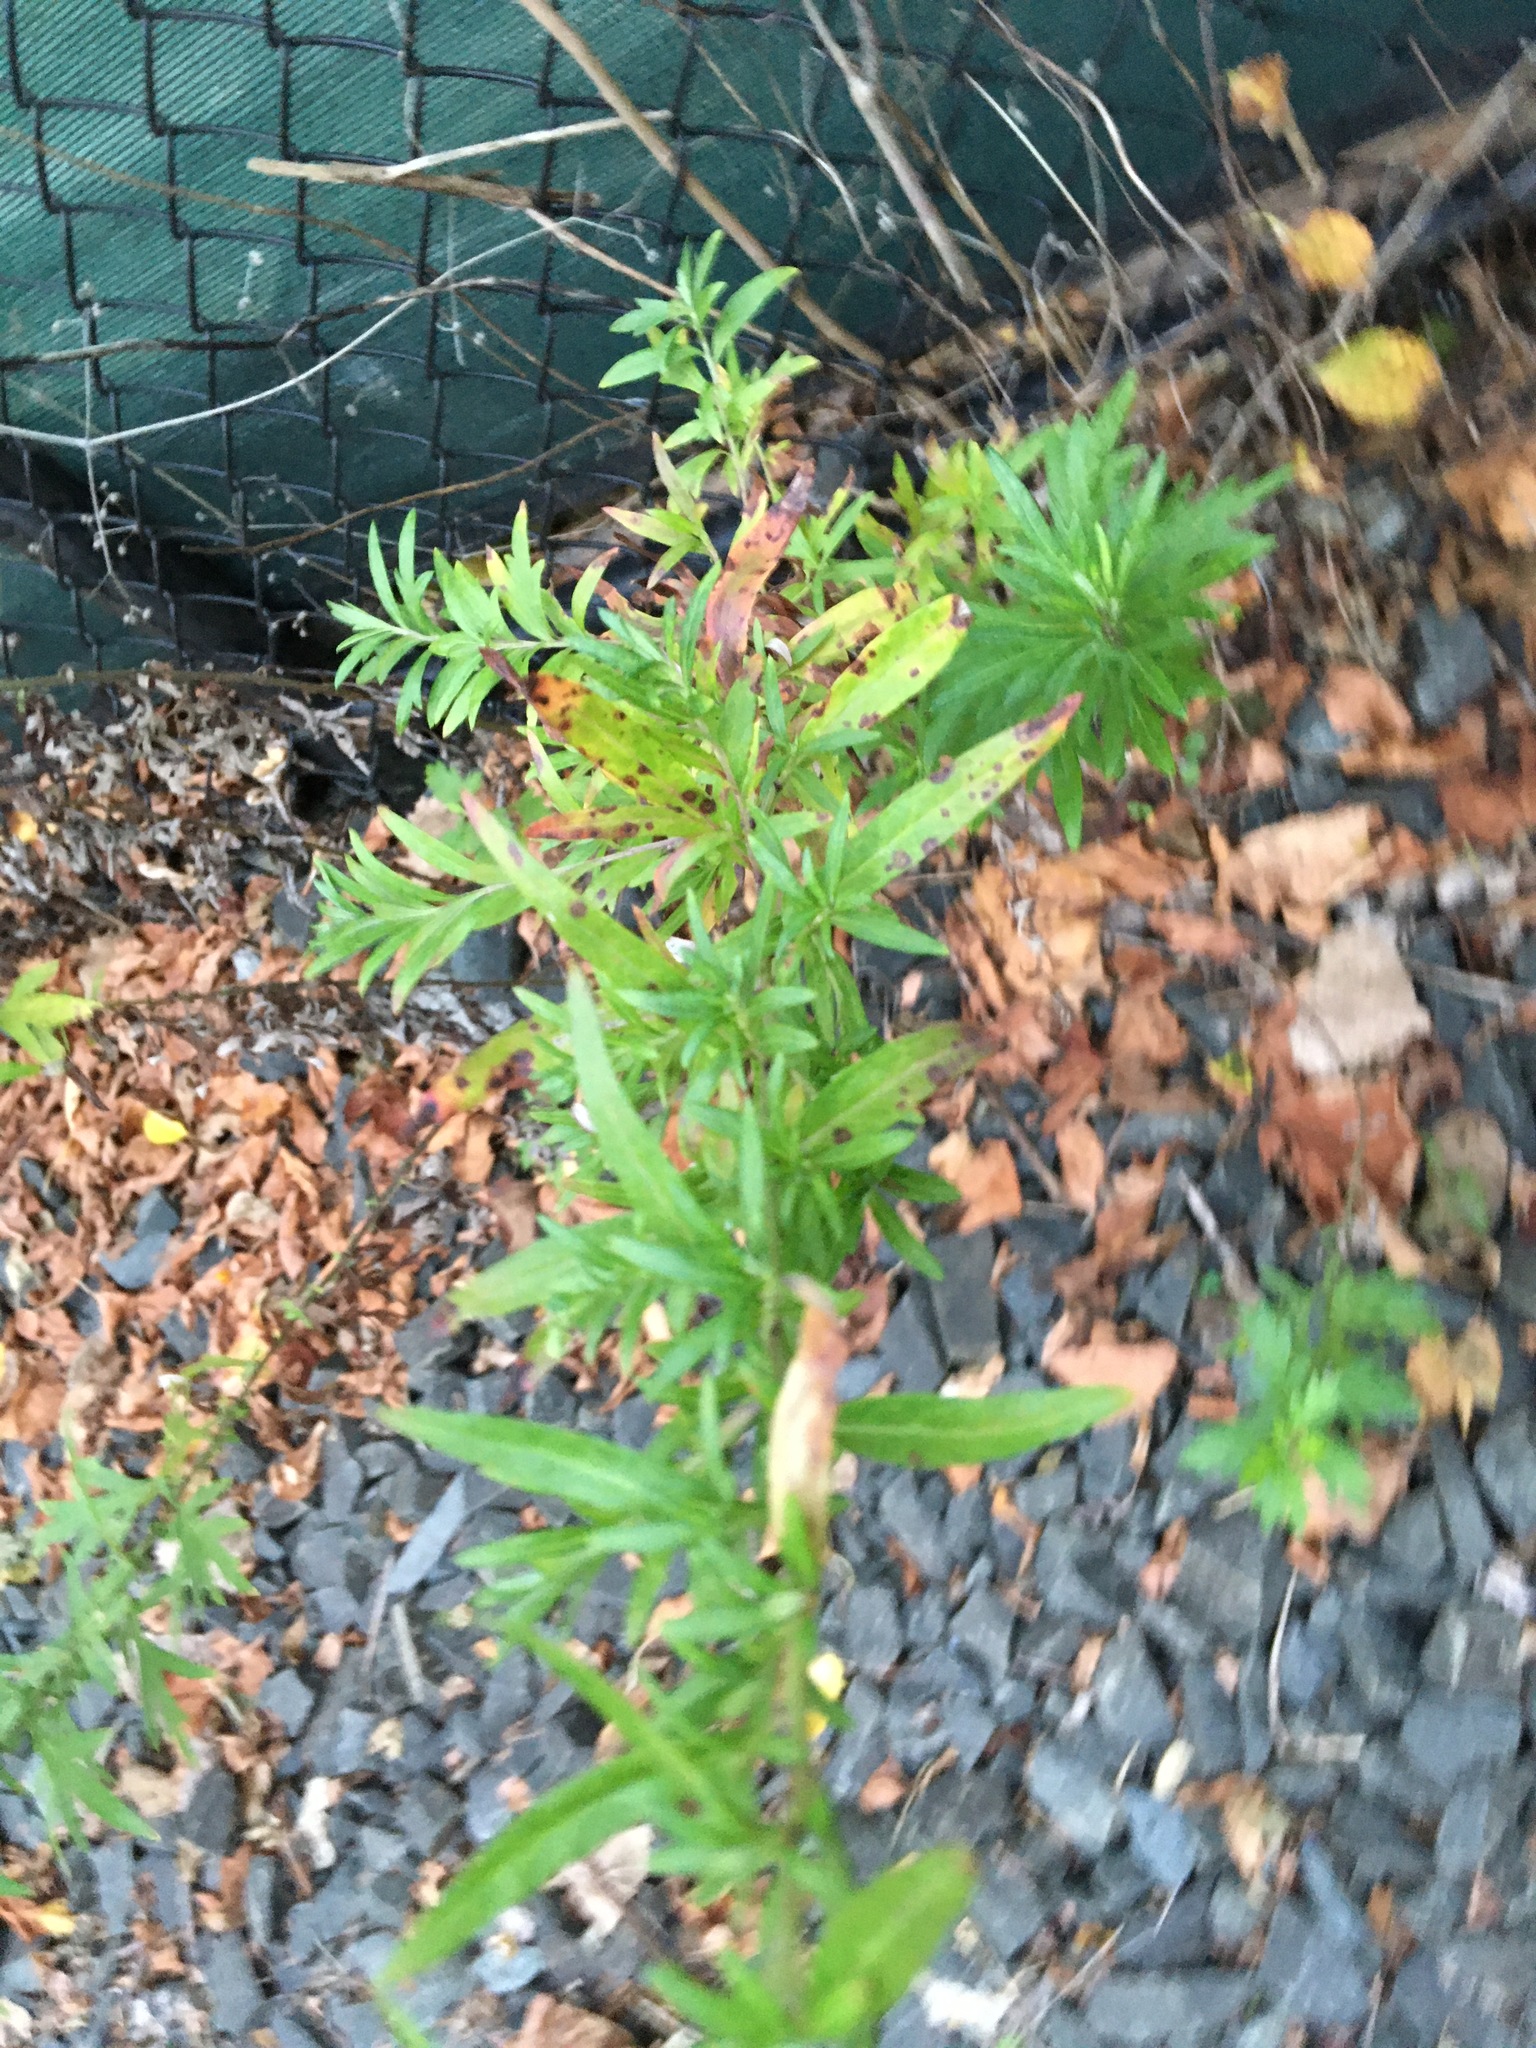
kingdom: Plantae
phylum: Tracheophyta
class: Magnoliopsida
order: Asterales
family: Asteraceae
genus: Artemisia
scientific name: Artemisia vulgaris
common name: Mugwort
